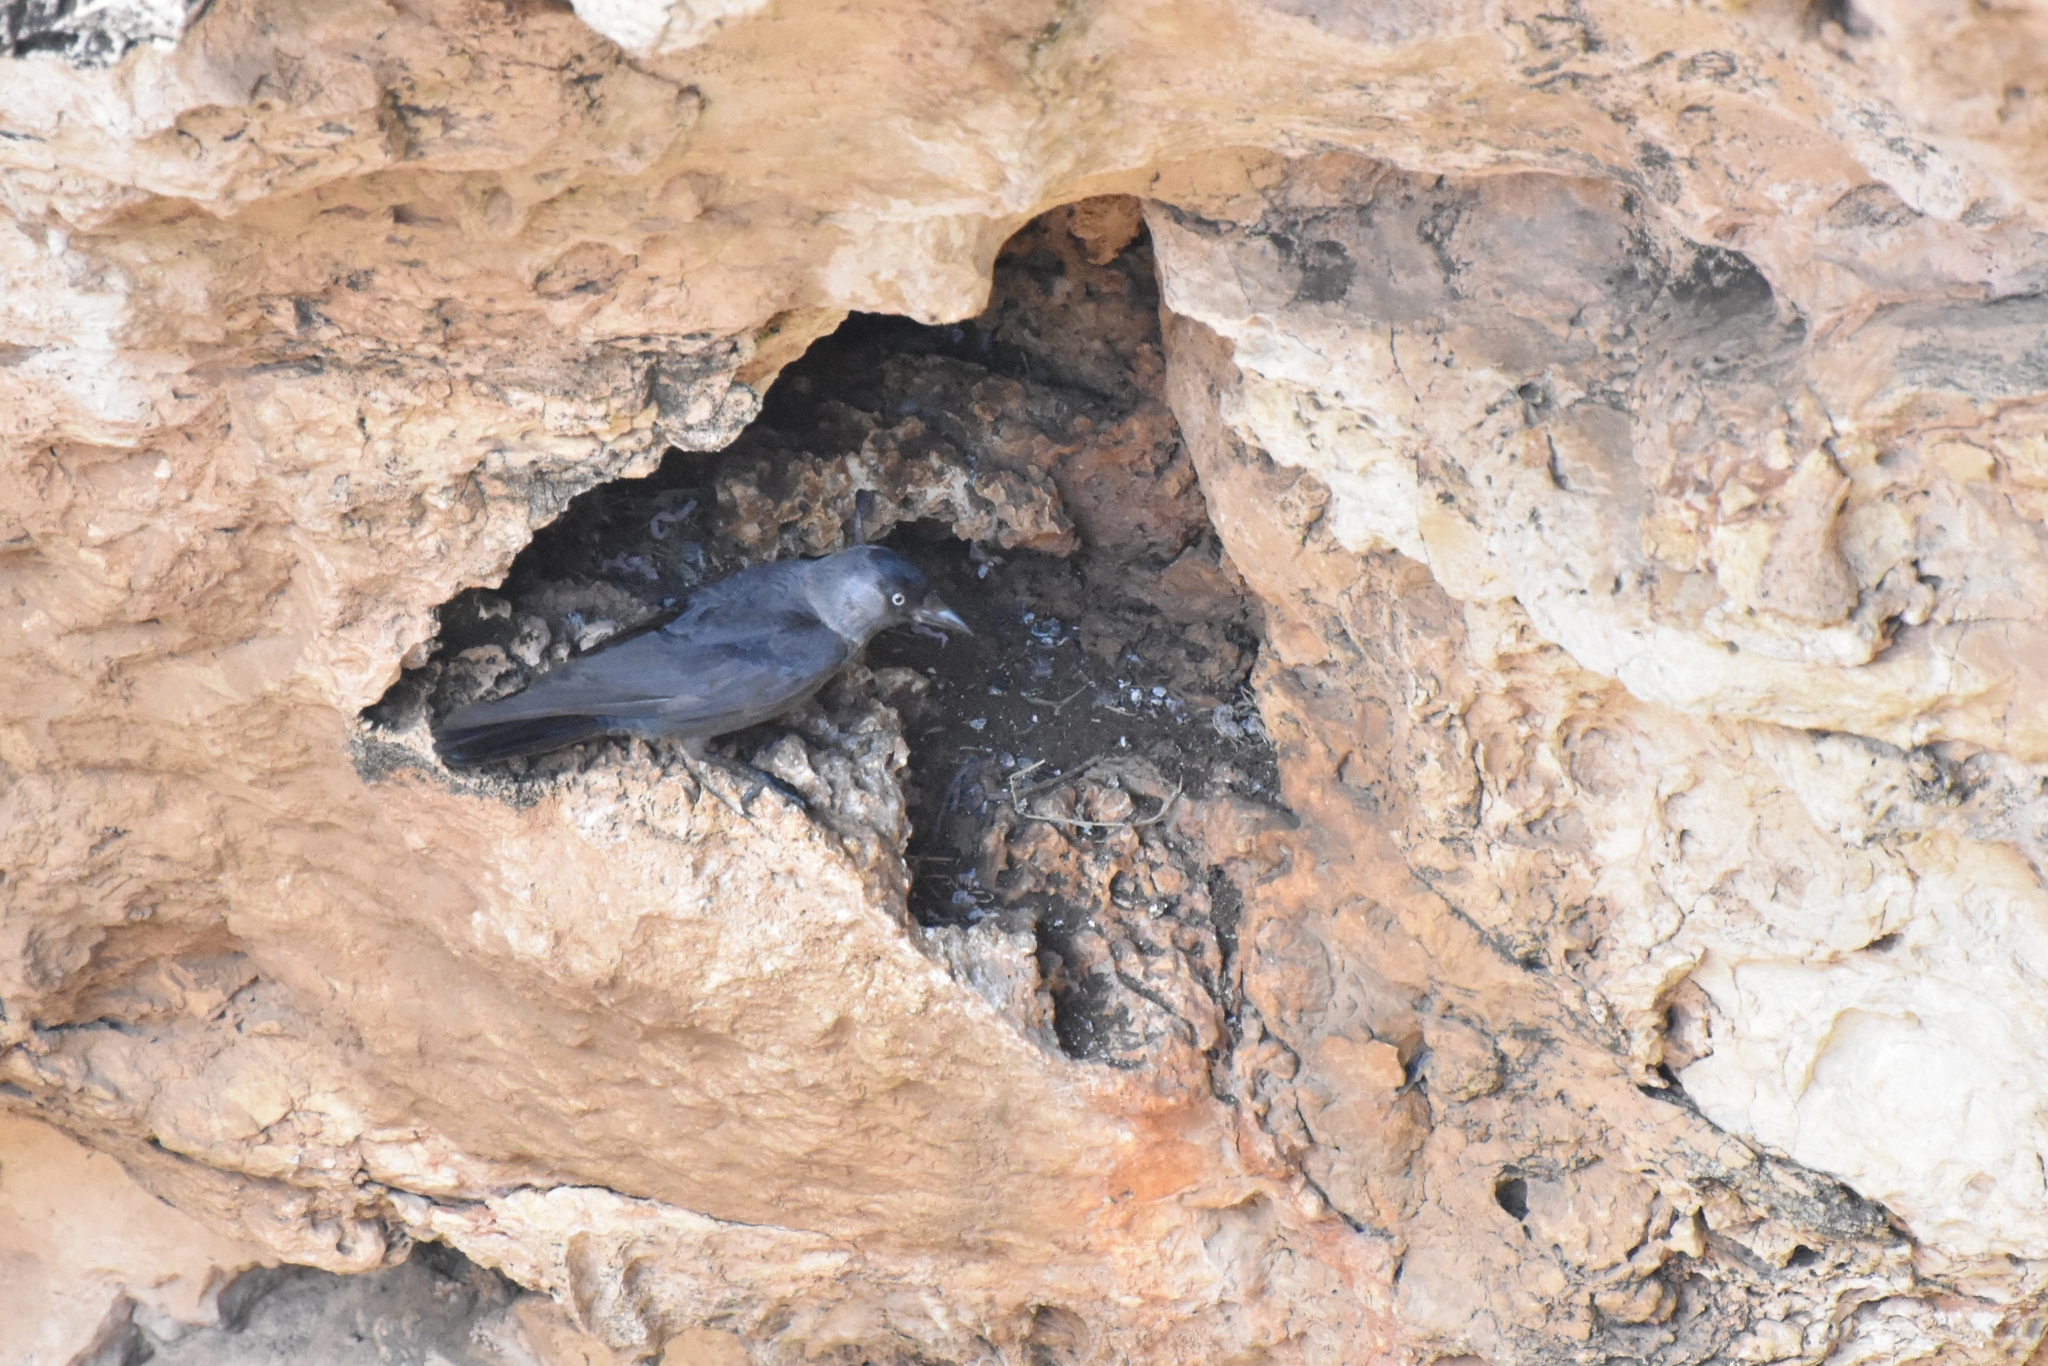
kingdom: Animalia
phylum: Chordata
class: Aves
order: Passeriformes
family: Corvidae
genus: Coloeus
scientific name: Coloeus monedula
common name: Western jackdaw
